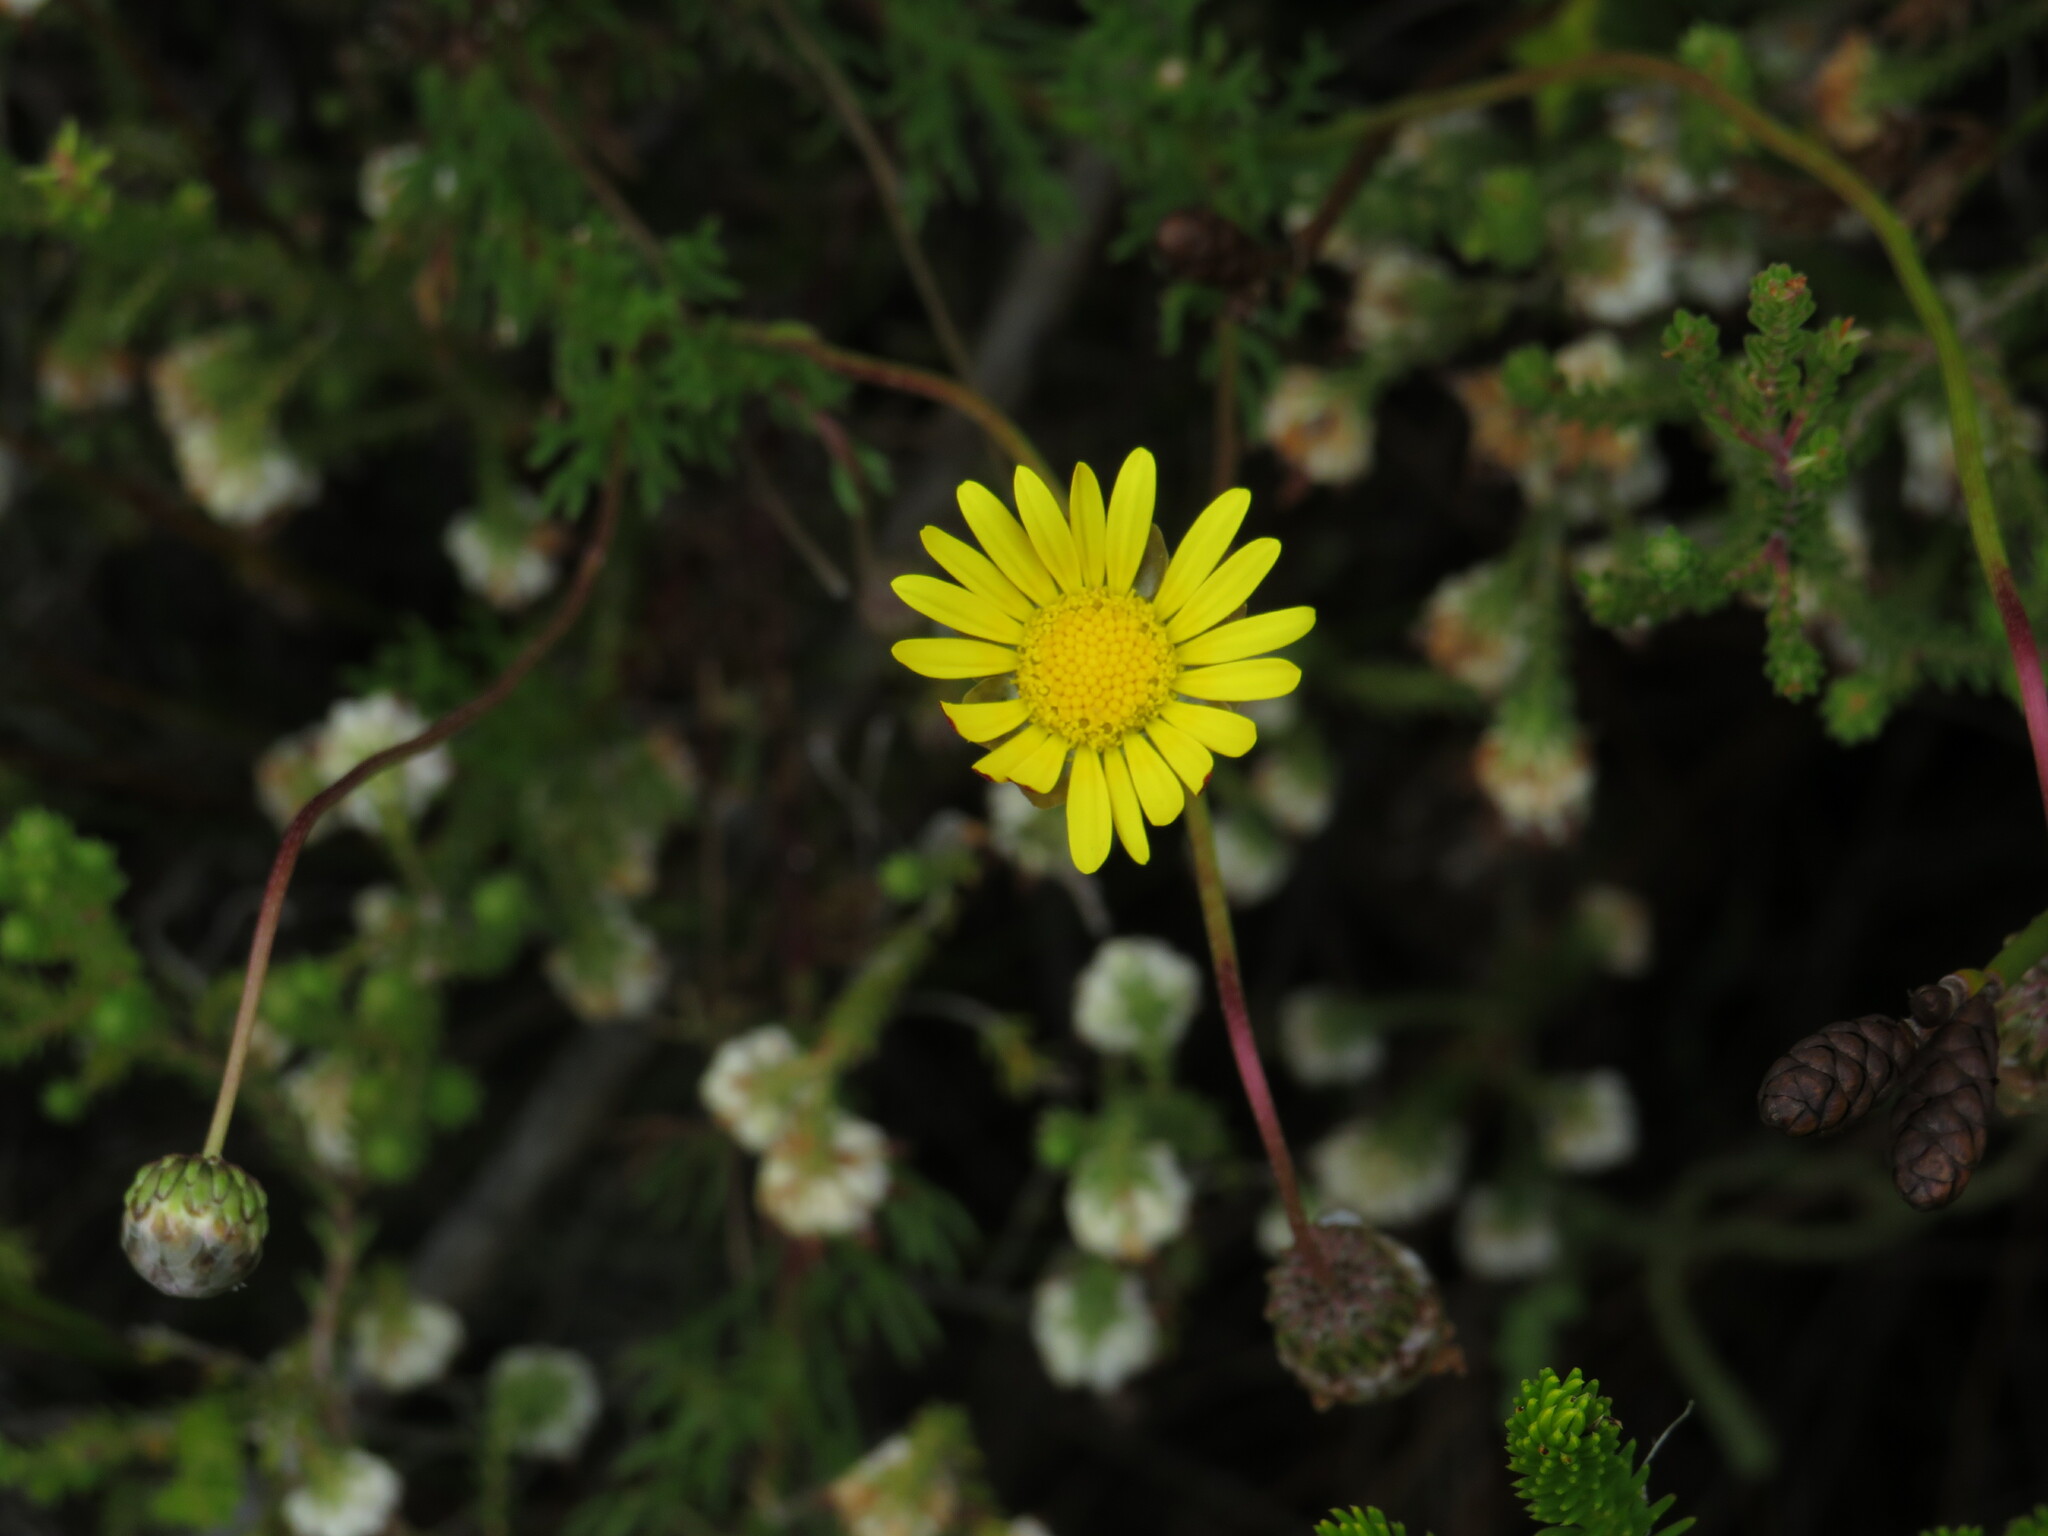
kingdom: Plantae
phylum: Tracheophyta
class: Magnoliopsida
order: Asterales
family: Asteraceae
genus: Ursinia
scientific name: Ursinia paleacea
